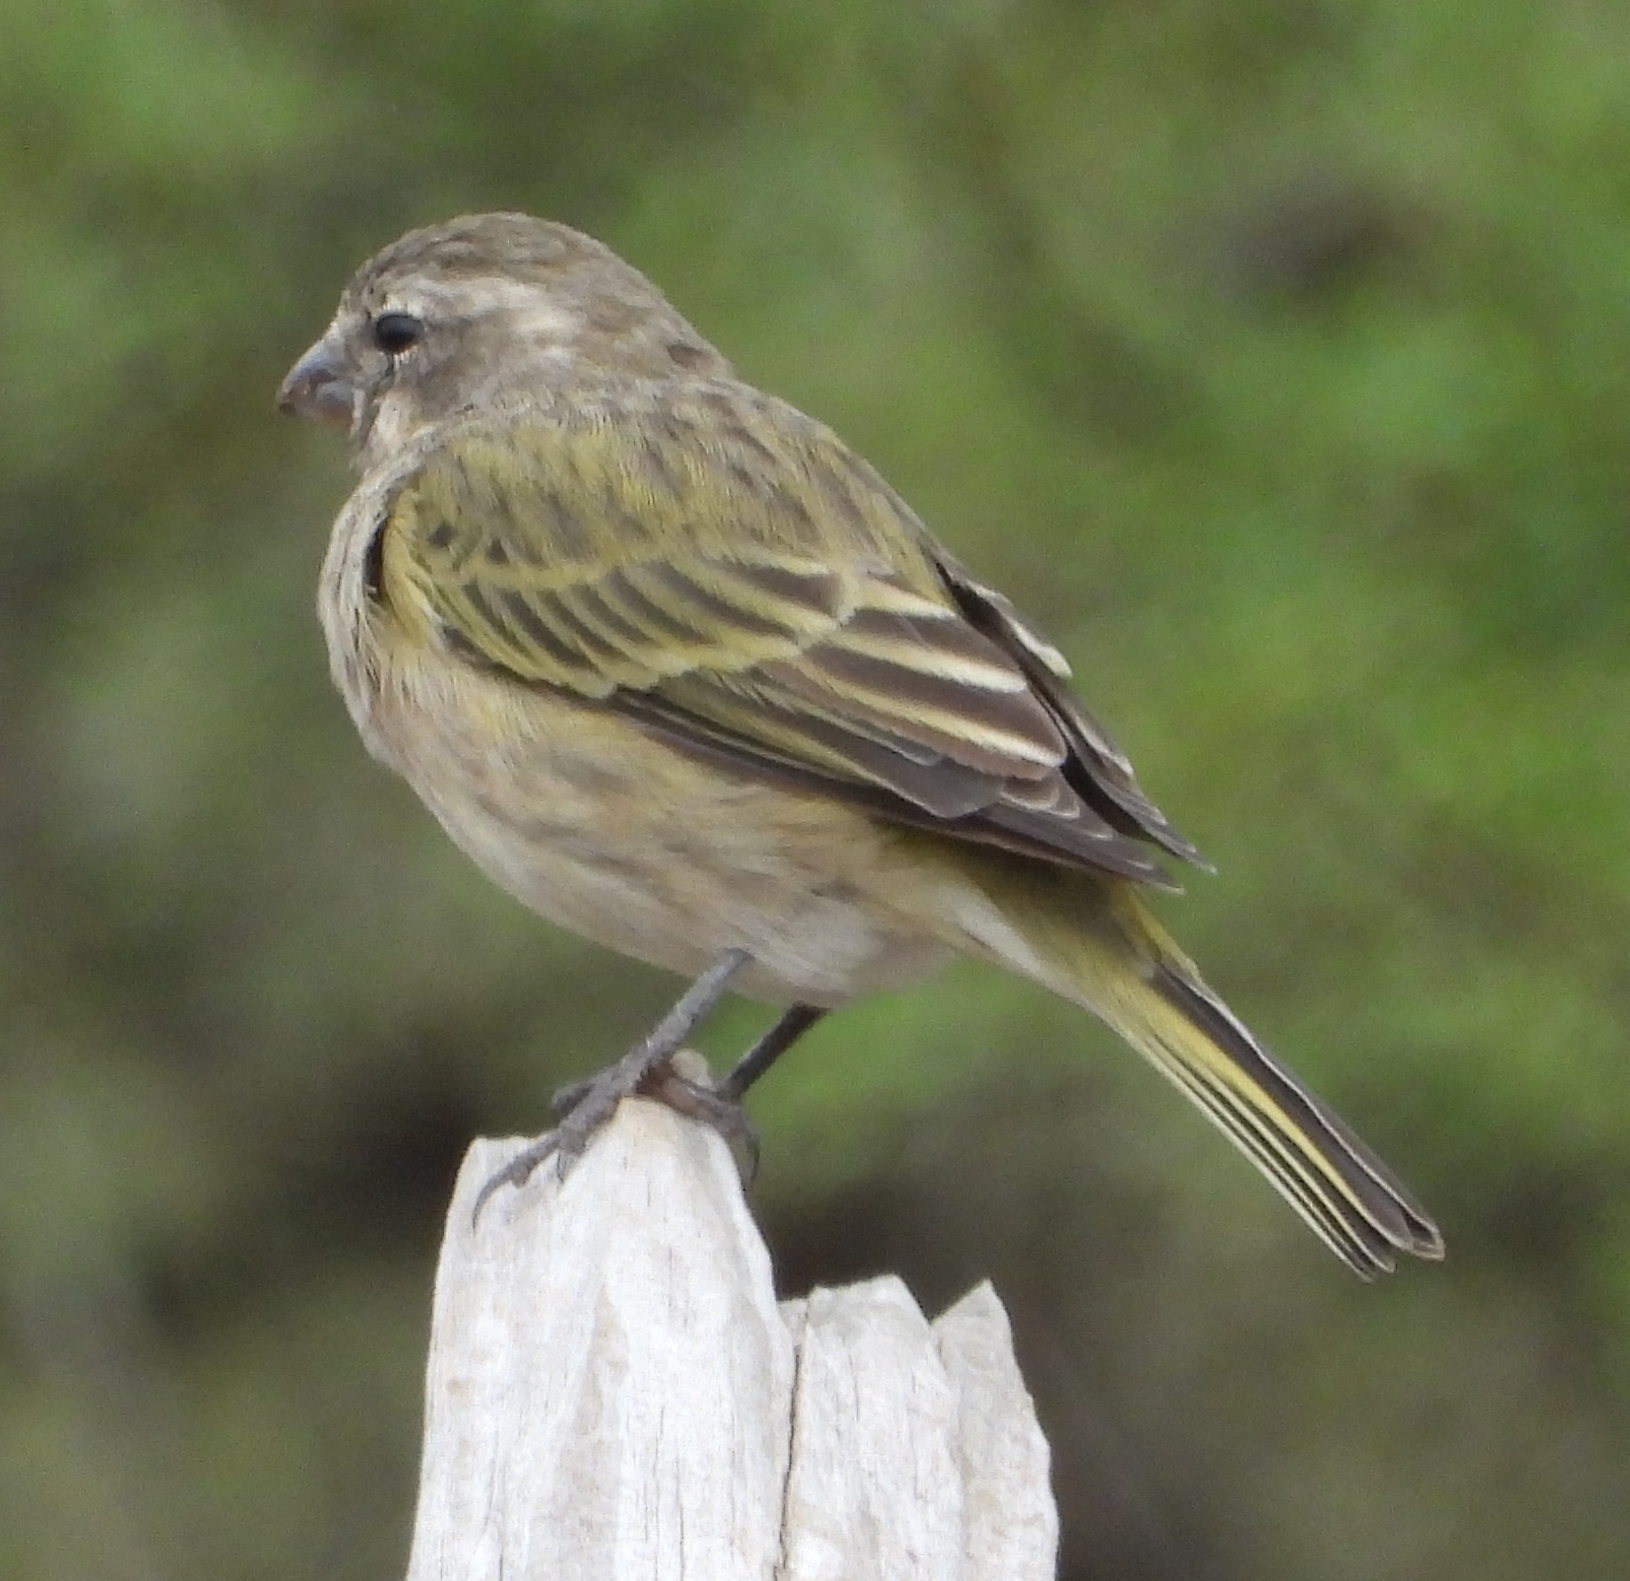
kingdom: Animalia
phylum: Chordata
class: Aves
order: Passeriformes
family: Fringillidae
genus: Crithagra
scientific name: Crithagra flaviventris
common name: Yellow canary
